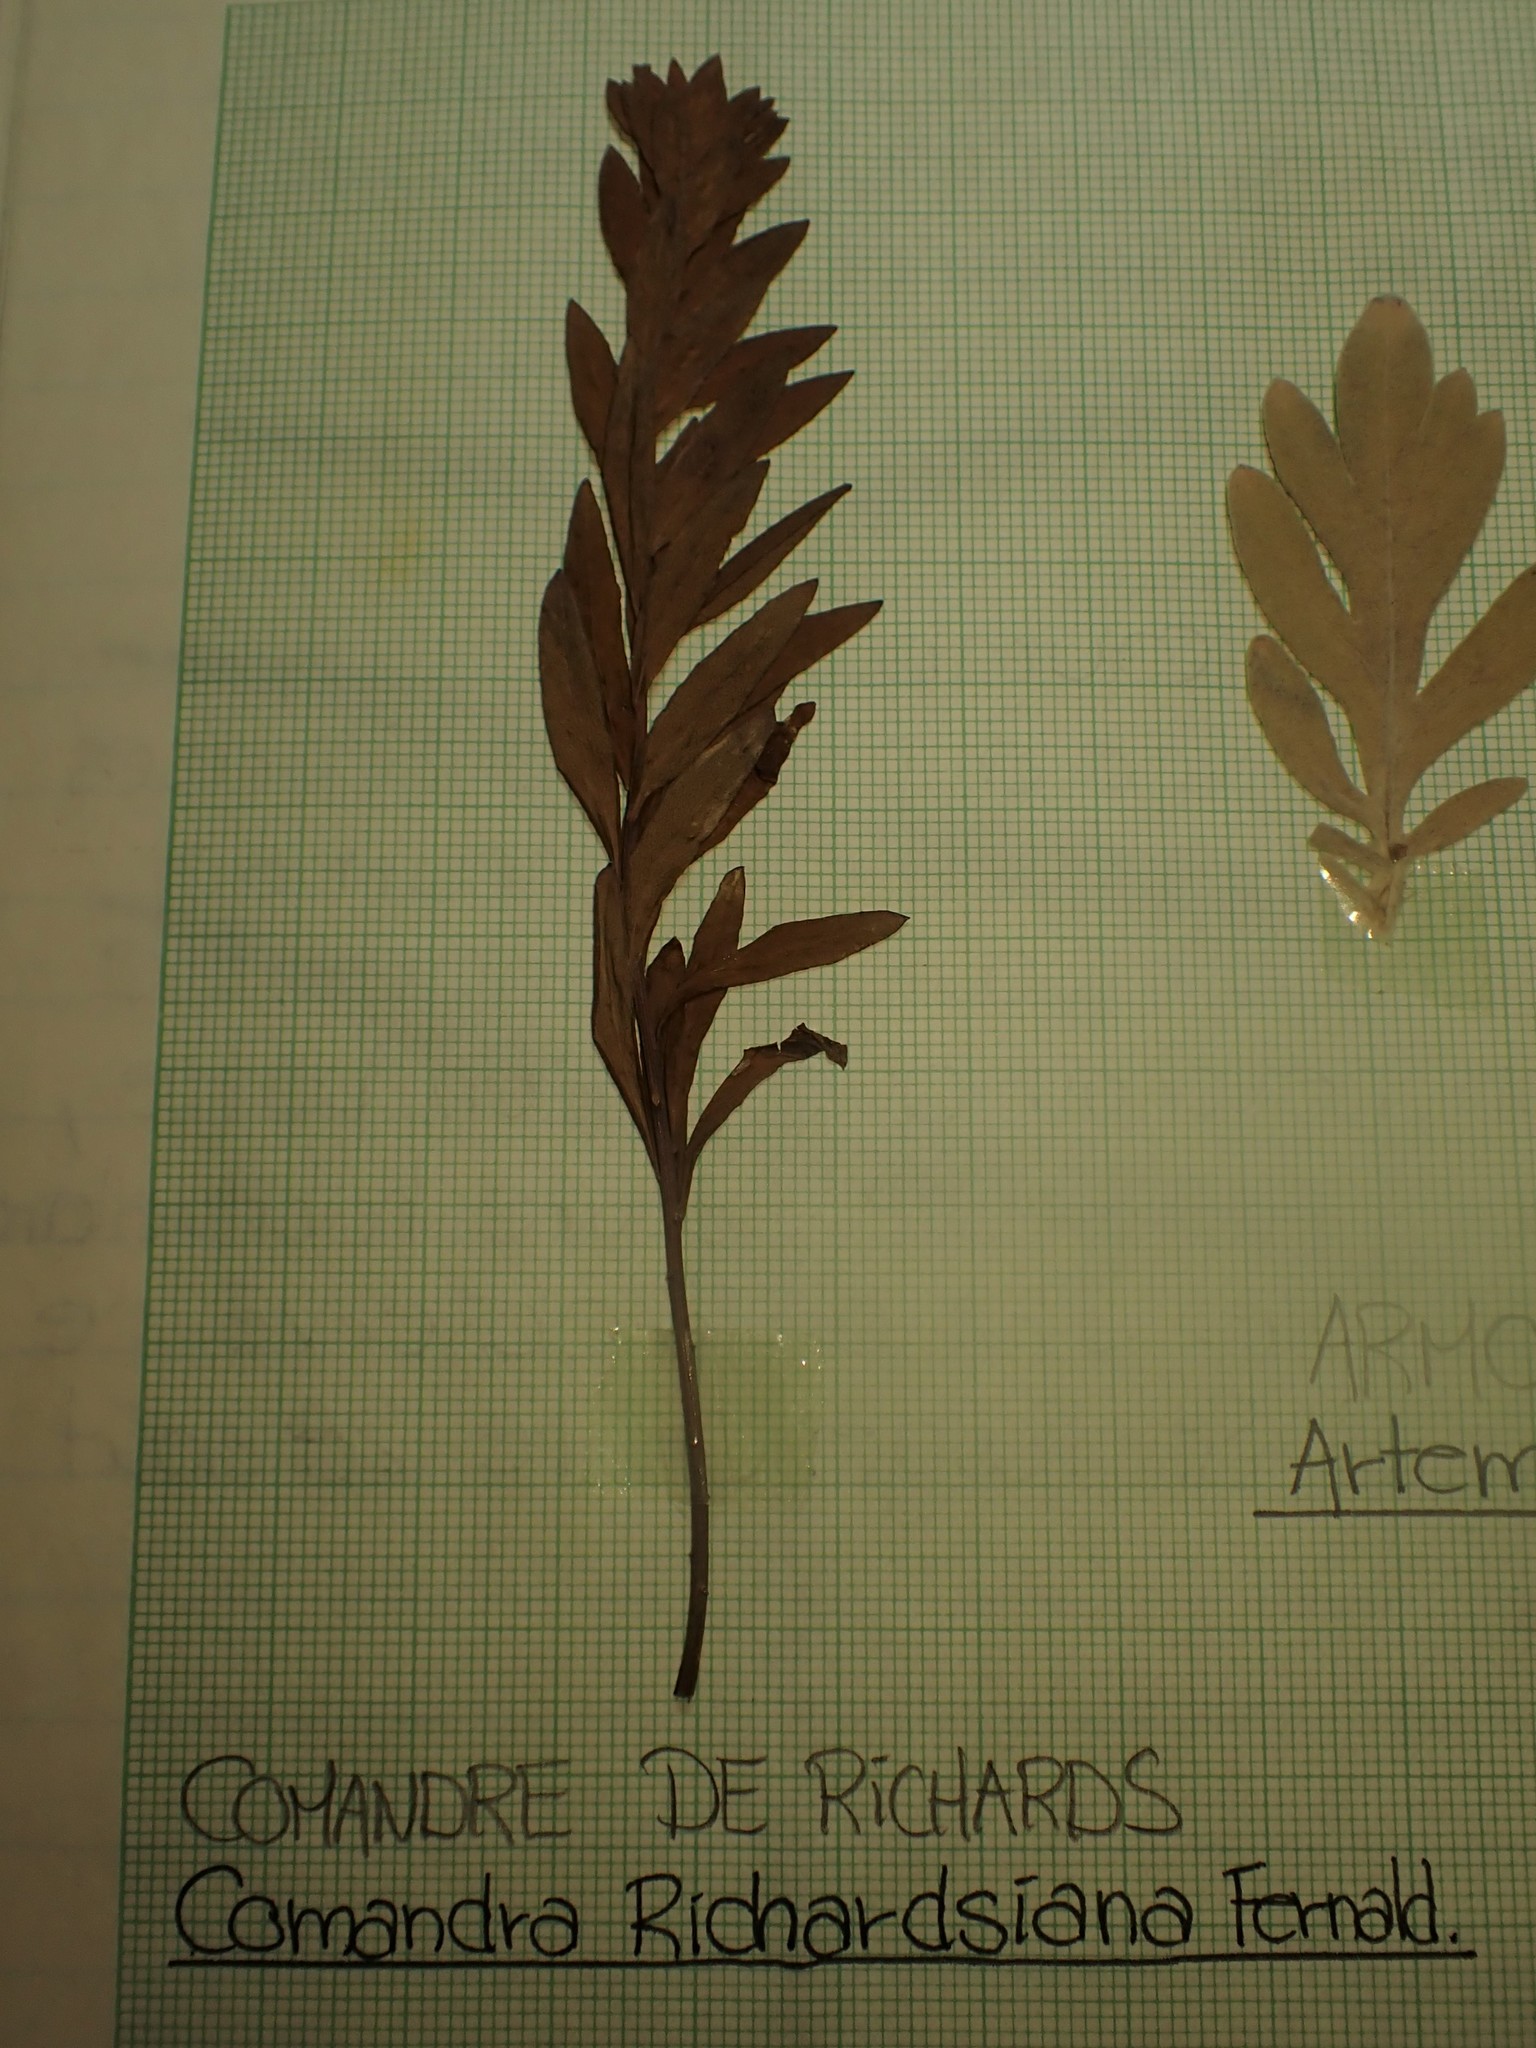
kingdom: Plantae
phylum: Tracheophyta
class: Magnoliopsida
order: Santalales
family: Comandraceae
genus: Comandra
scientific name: Comandra umbellata
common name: Bastard toadflax
